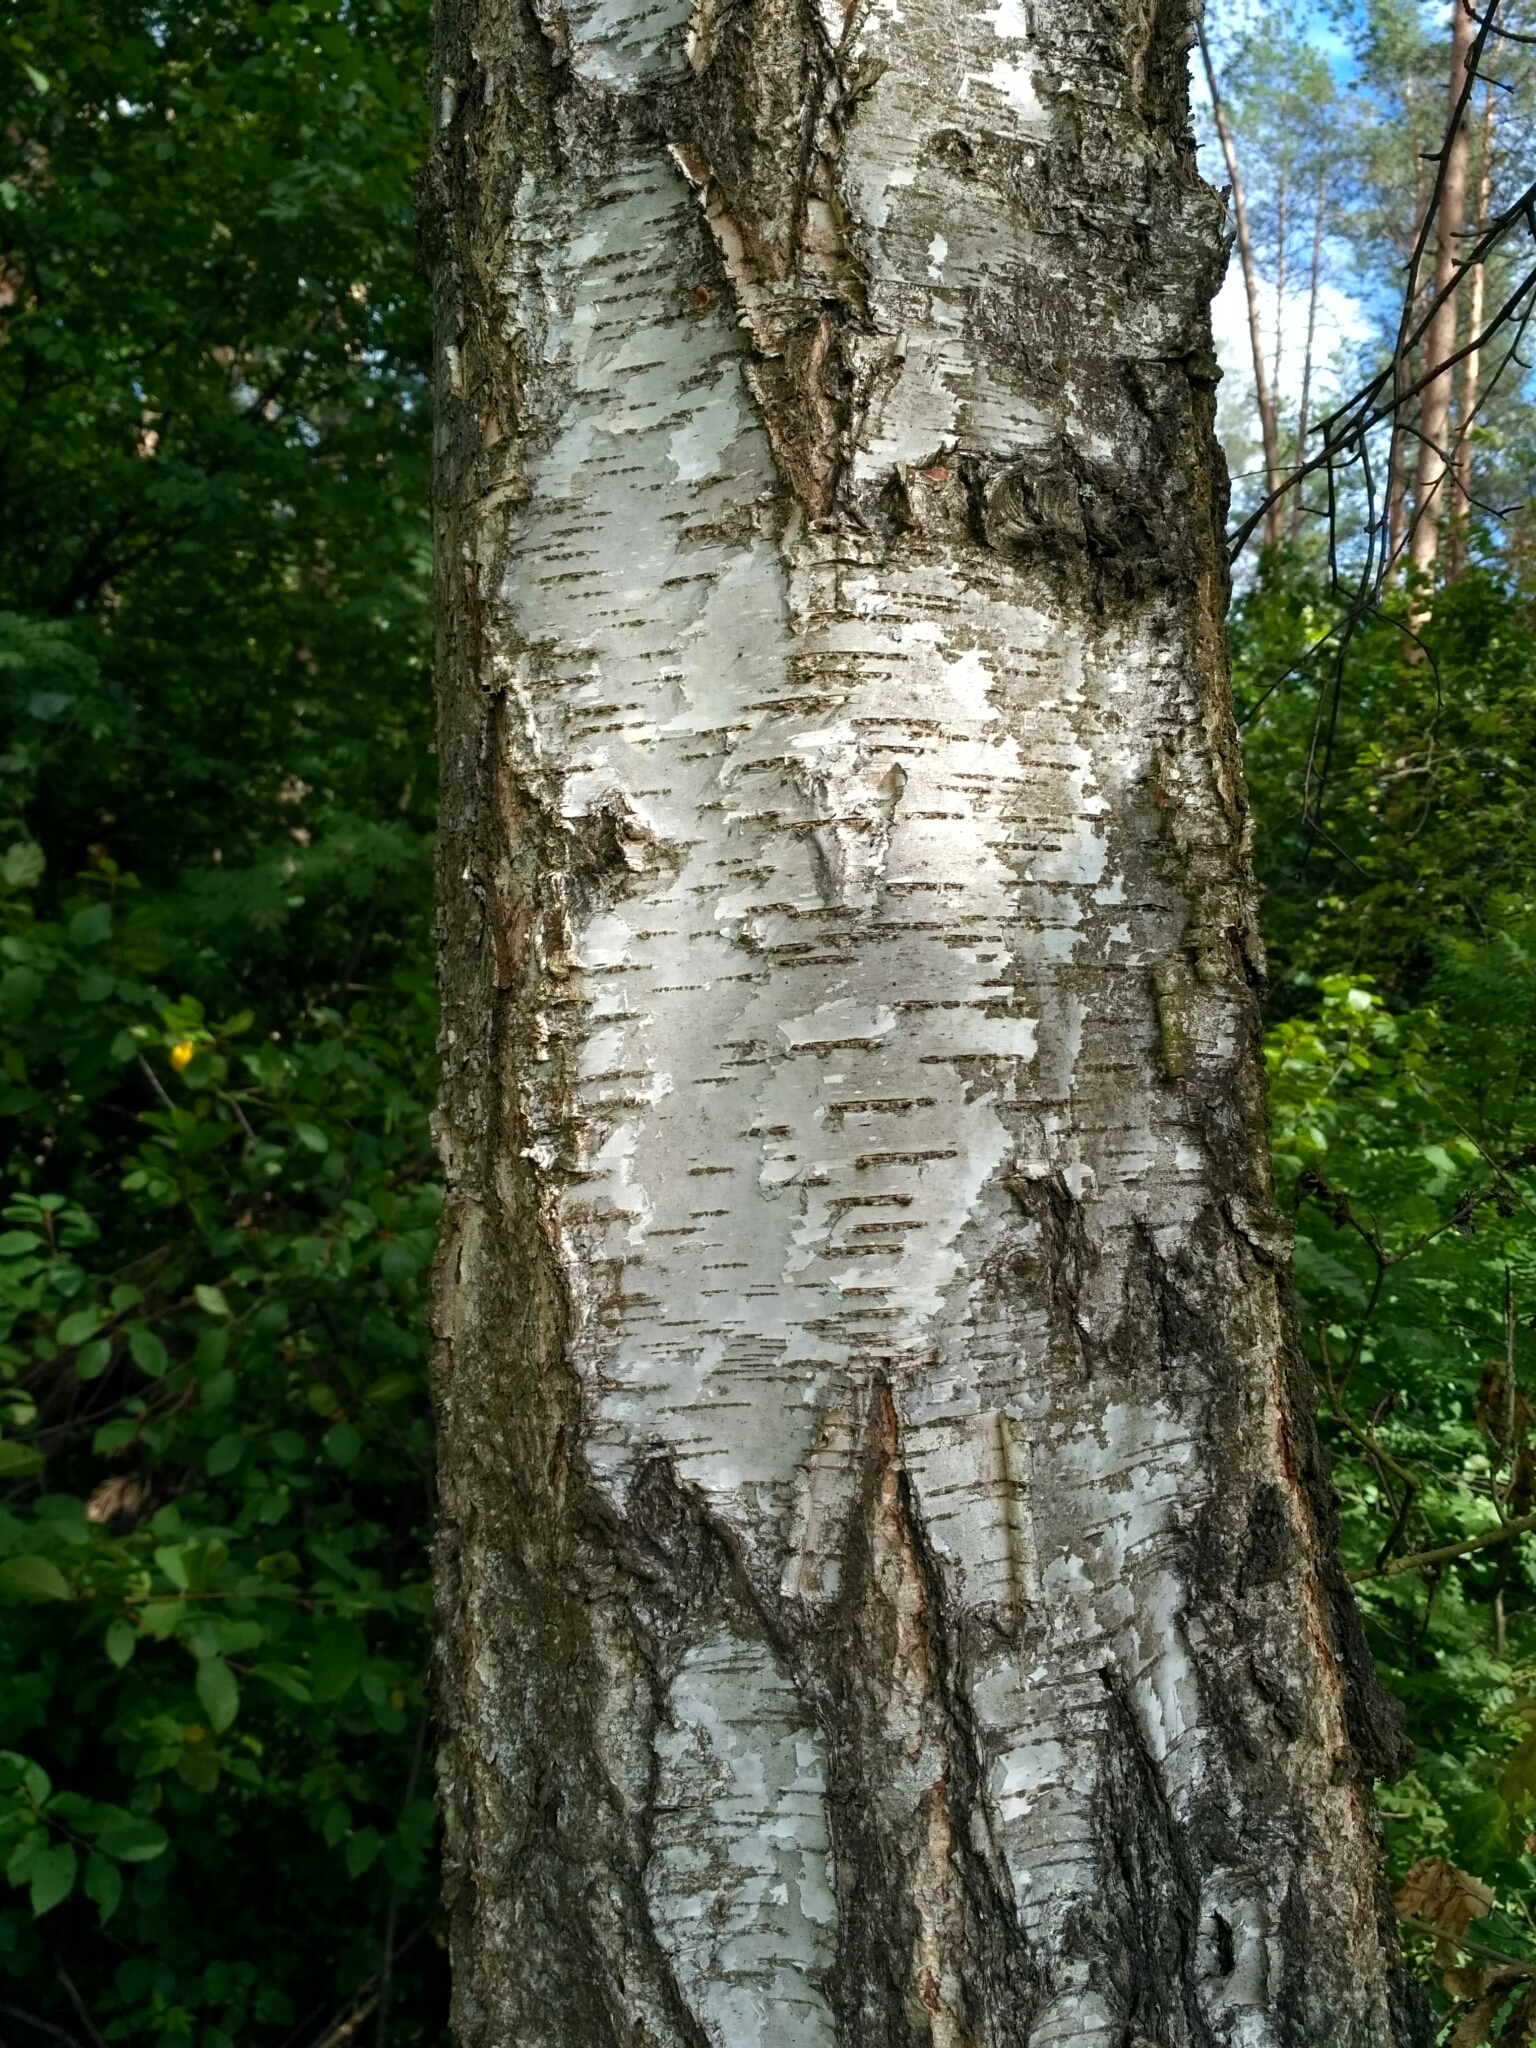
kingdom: Plantae
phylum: Tracheophyta
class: Magnoliopsida
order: Fagales
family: Betulaceae
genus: Betula
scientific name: Betula pendula
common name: Silver birch
